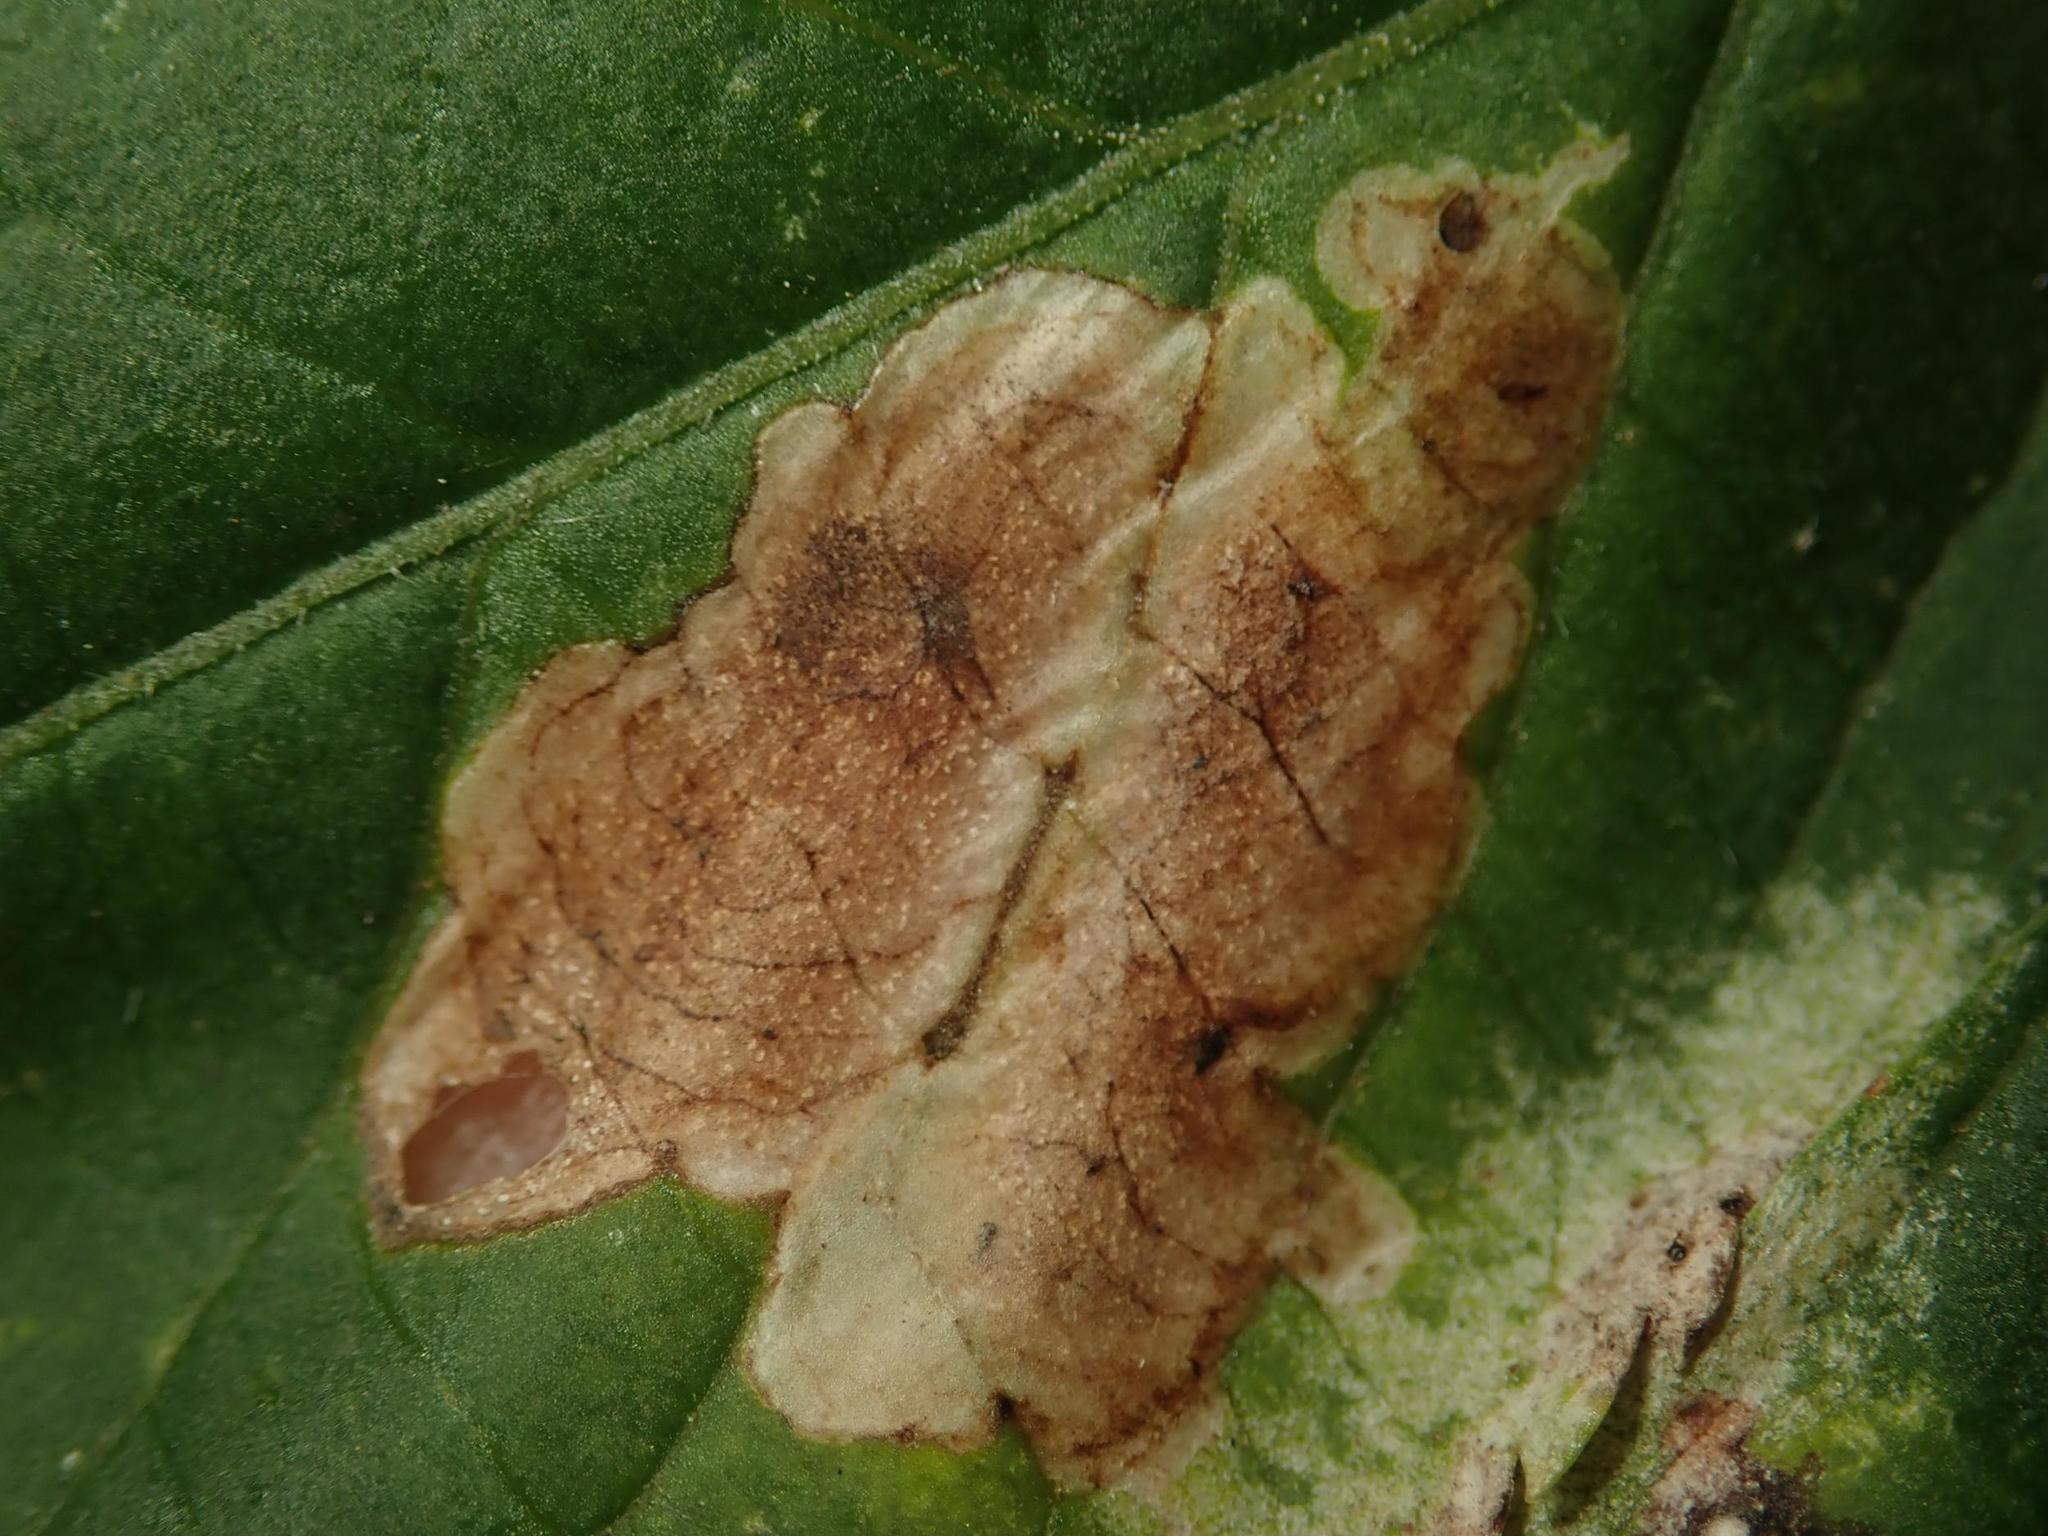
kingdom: Animalia
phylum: Arthropoda
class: Insecta
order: Diptera
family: Agromyzidae
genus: Liriomyza
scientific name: Liriomyza amoena
